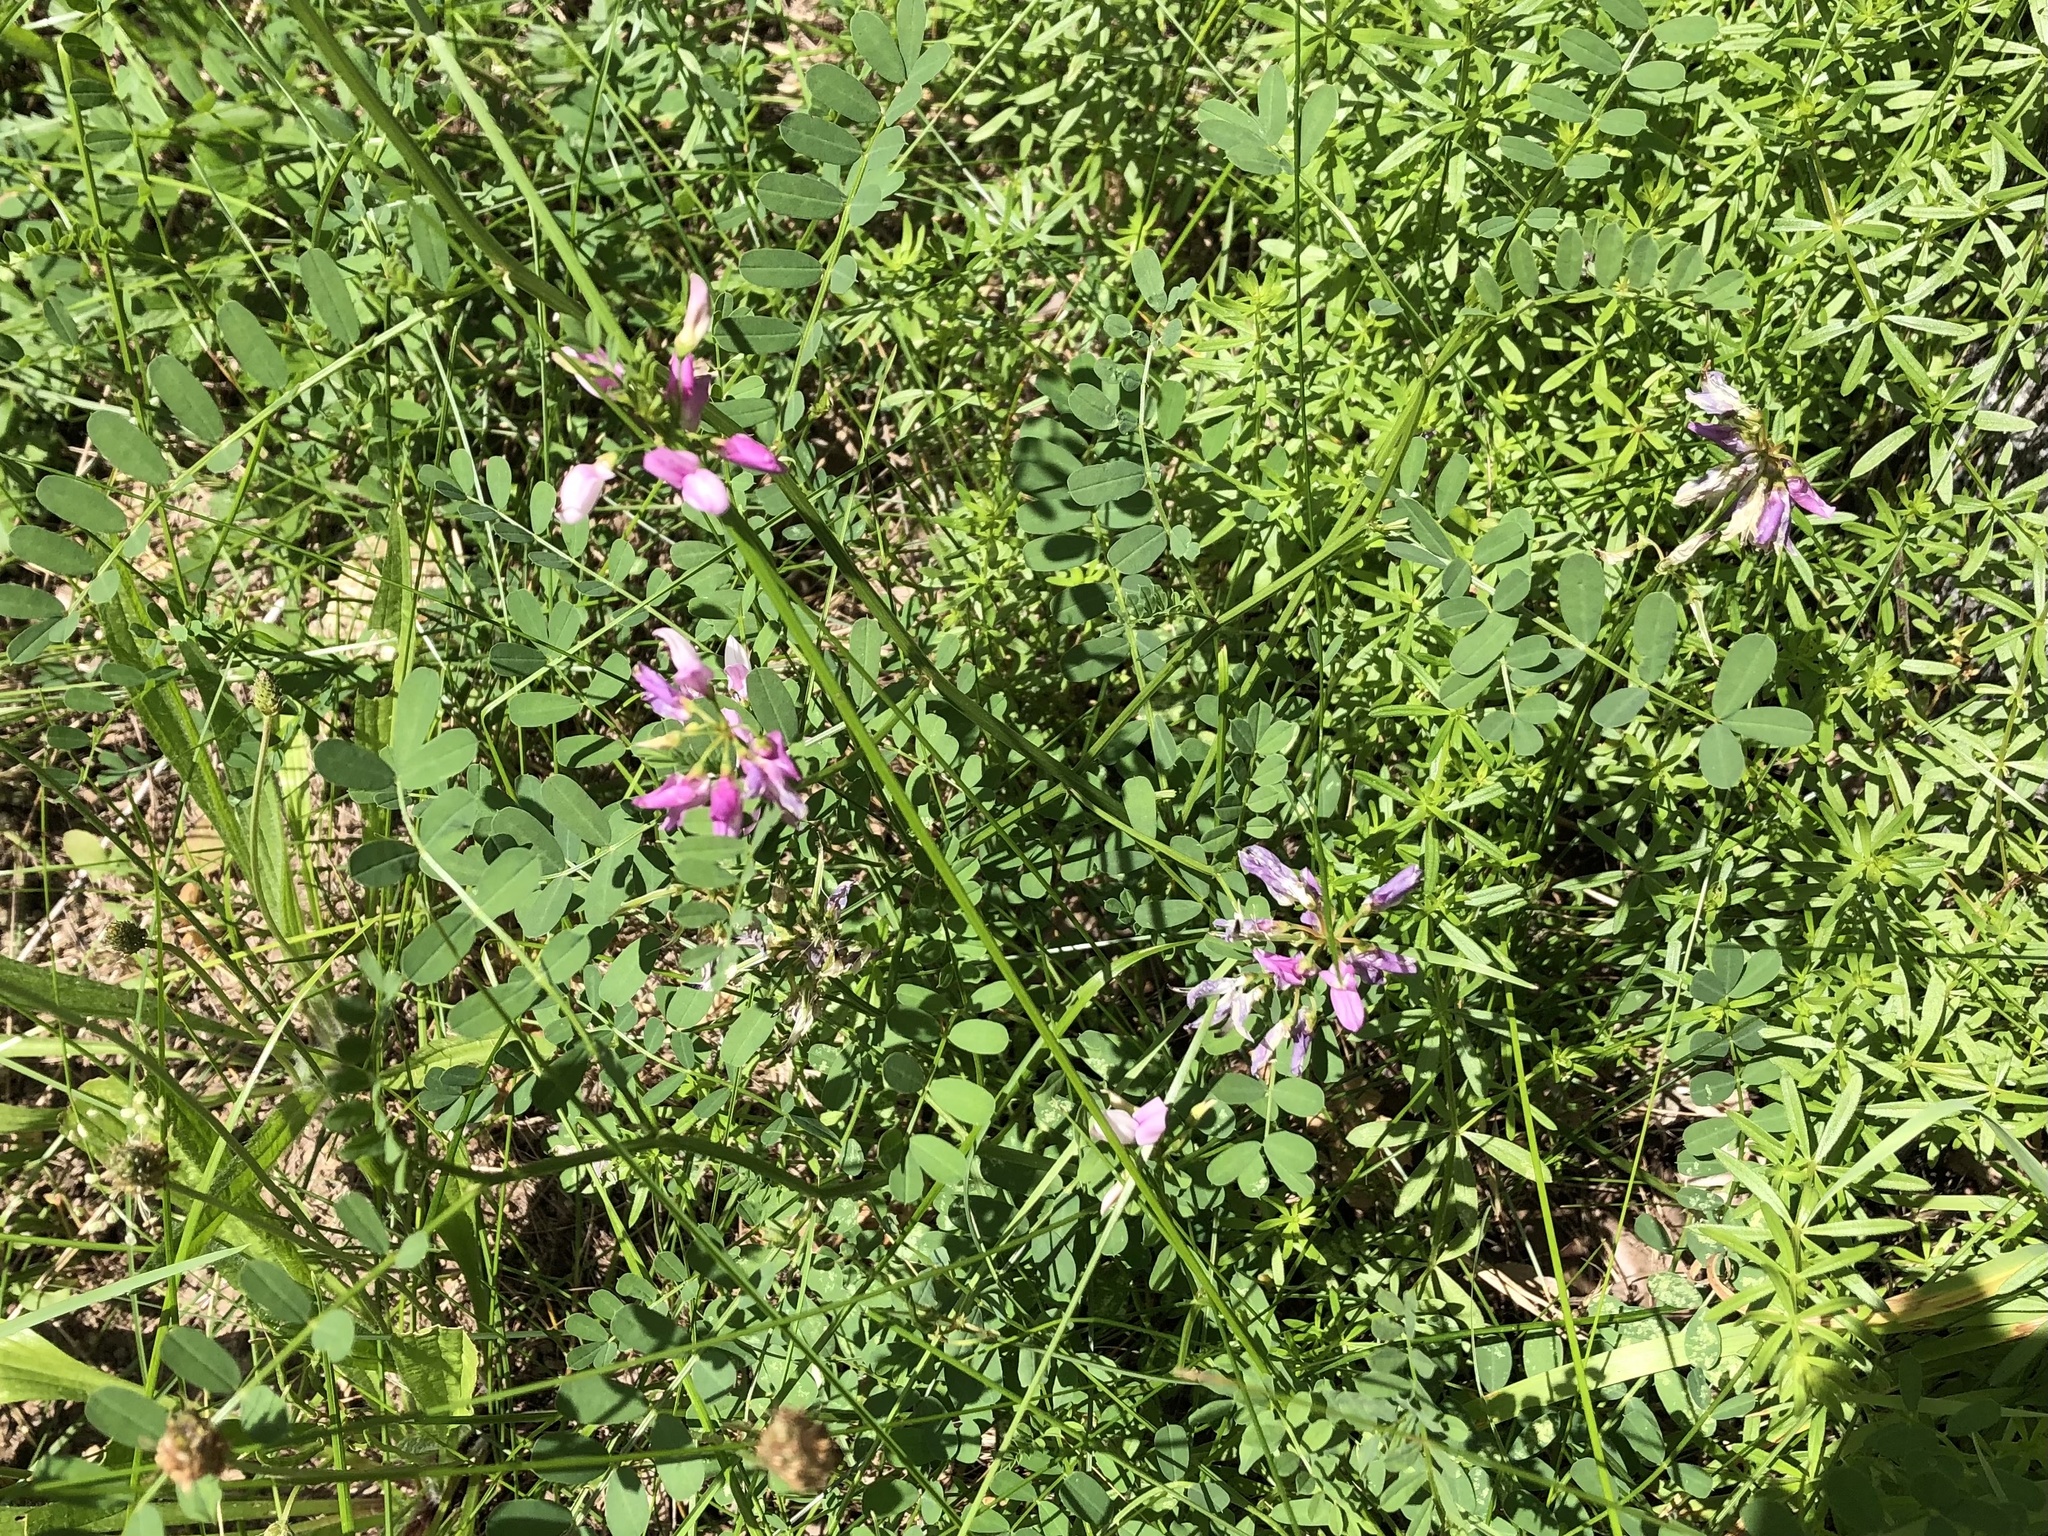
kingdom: Plantae
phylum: Tracheophyta
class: Magnoliopsida
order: Fabales
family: Fabaceae
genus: Coronilla
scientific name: Coronilla varia
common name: Crownvetch
